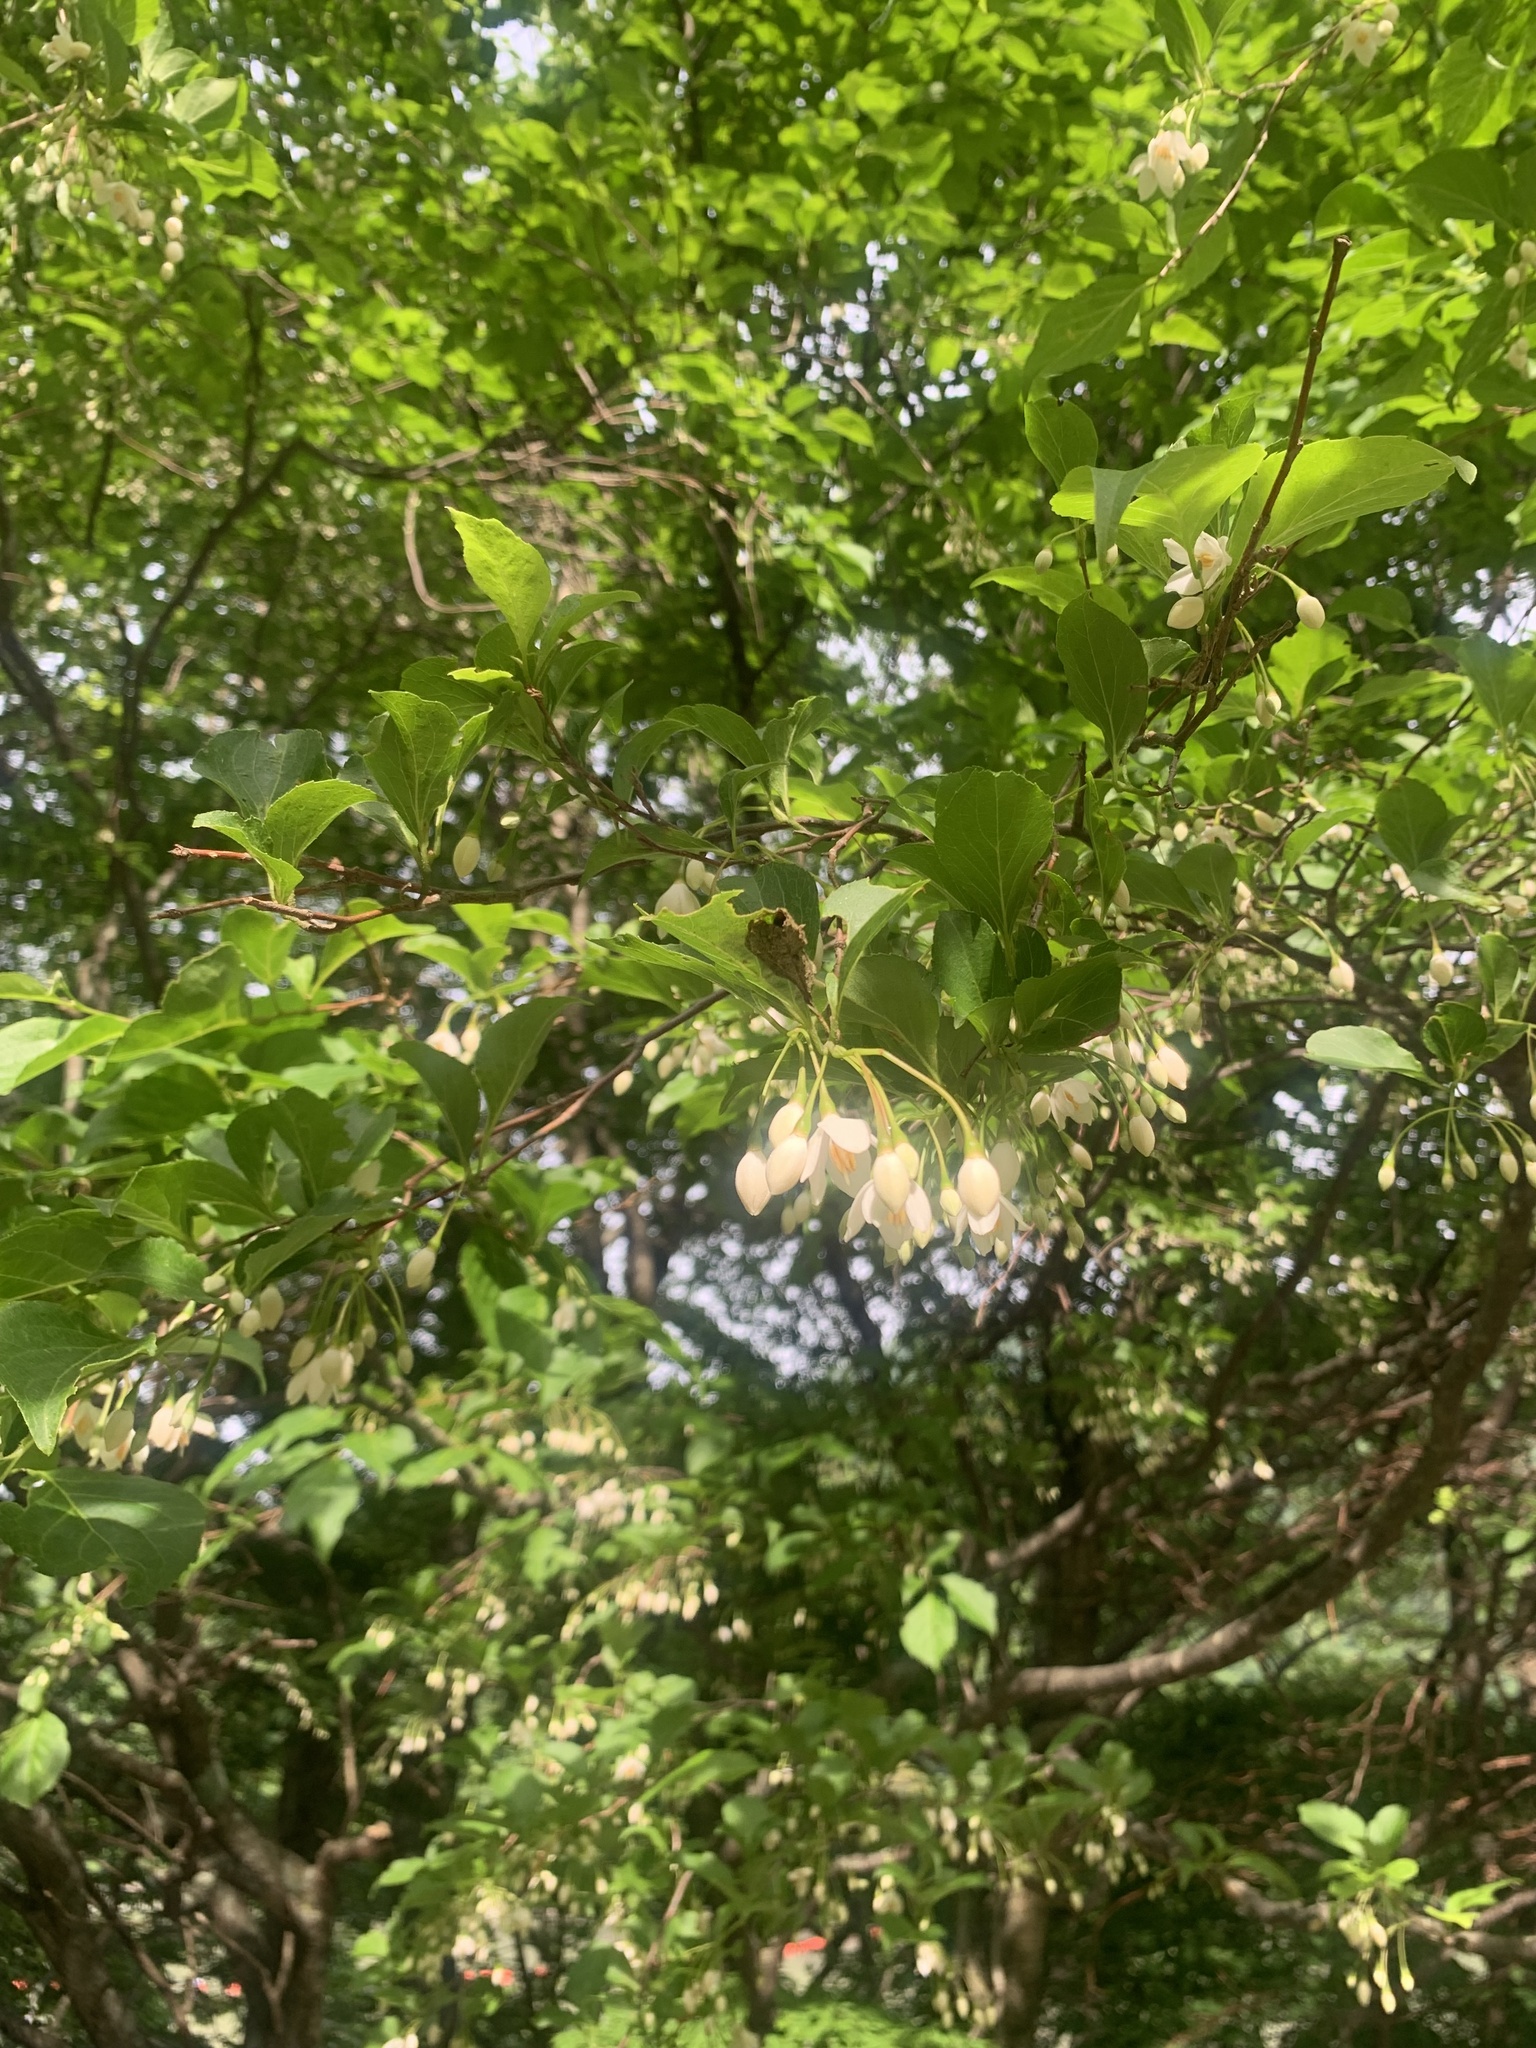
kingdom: Plantae
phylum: Tracheophyta
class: Magnoliopsida
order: Ericales
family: Styracaceae
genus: Styrax
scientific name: Styrax japonicus
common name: Japanese snowbell
